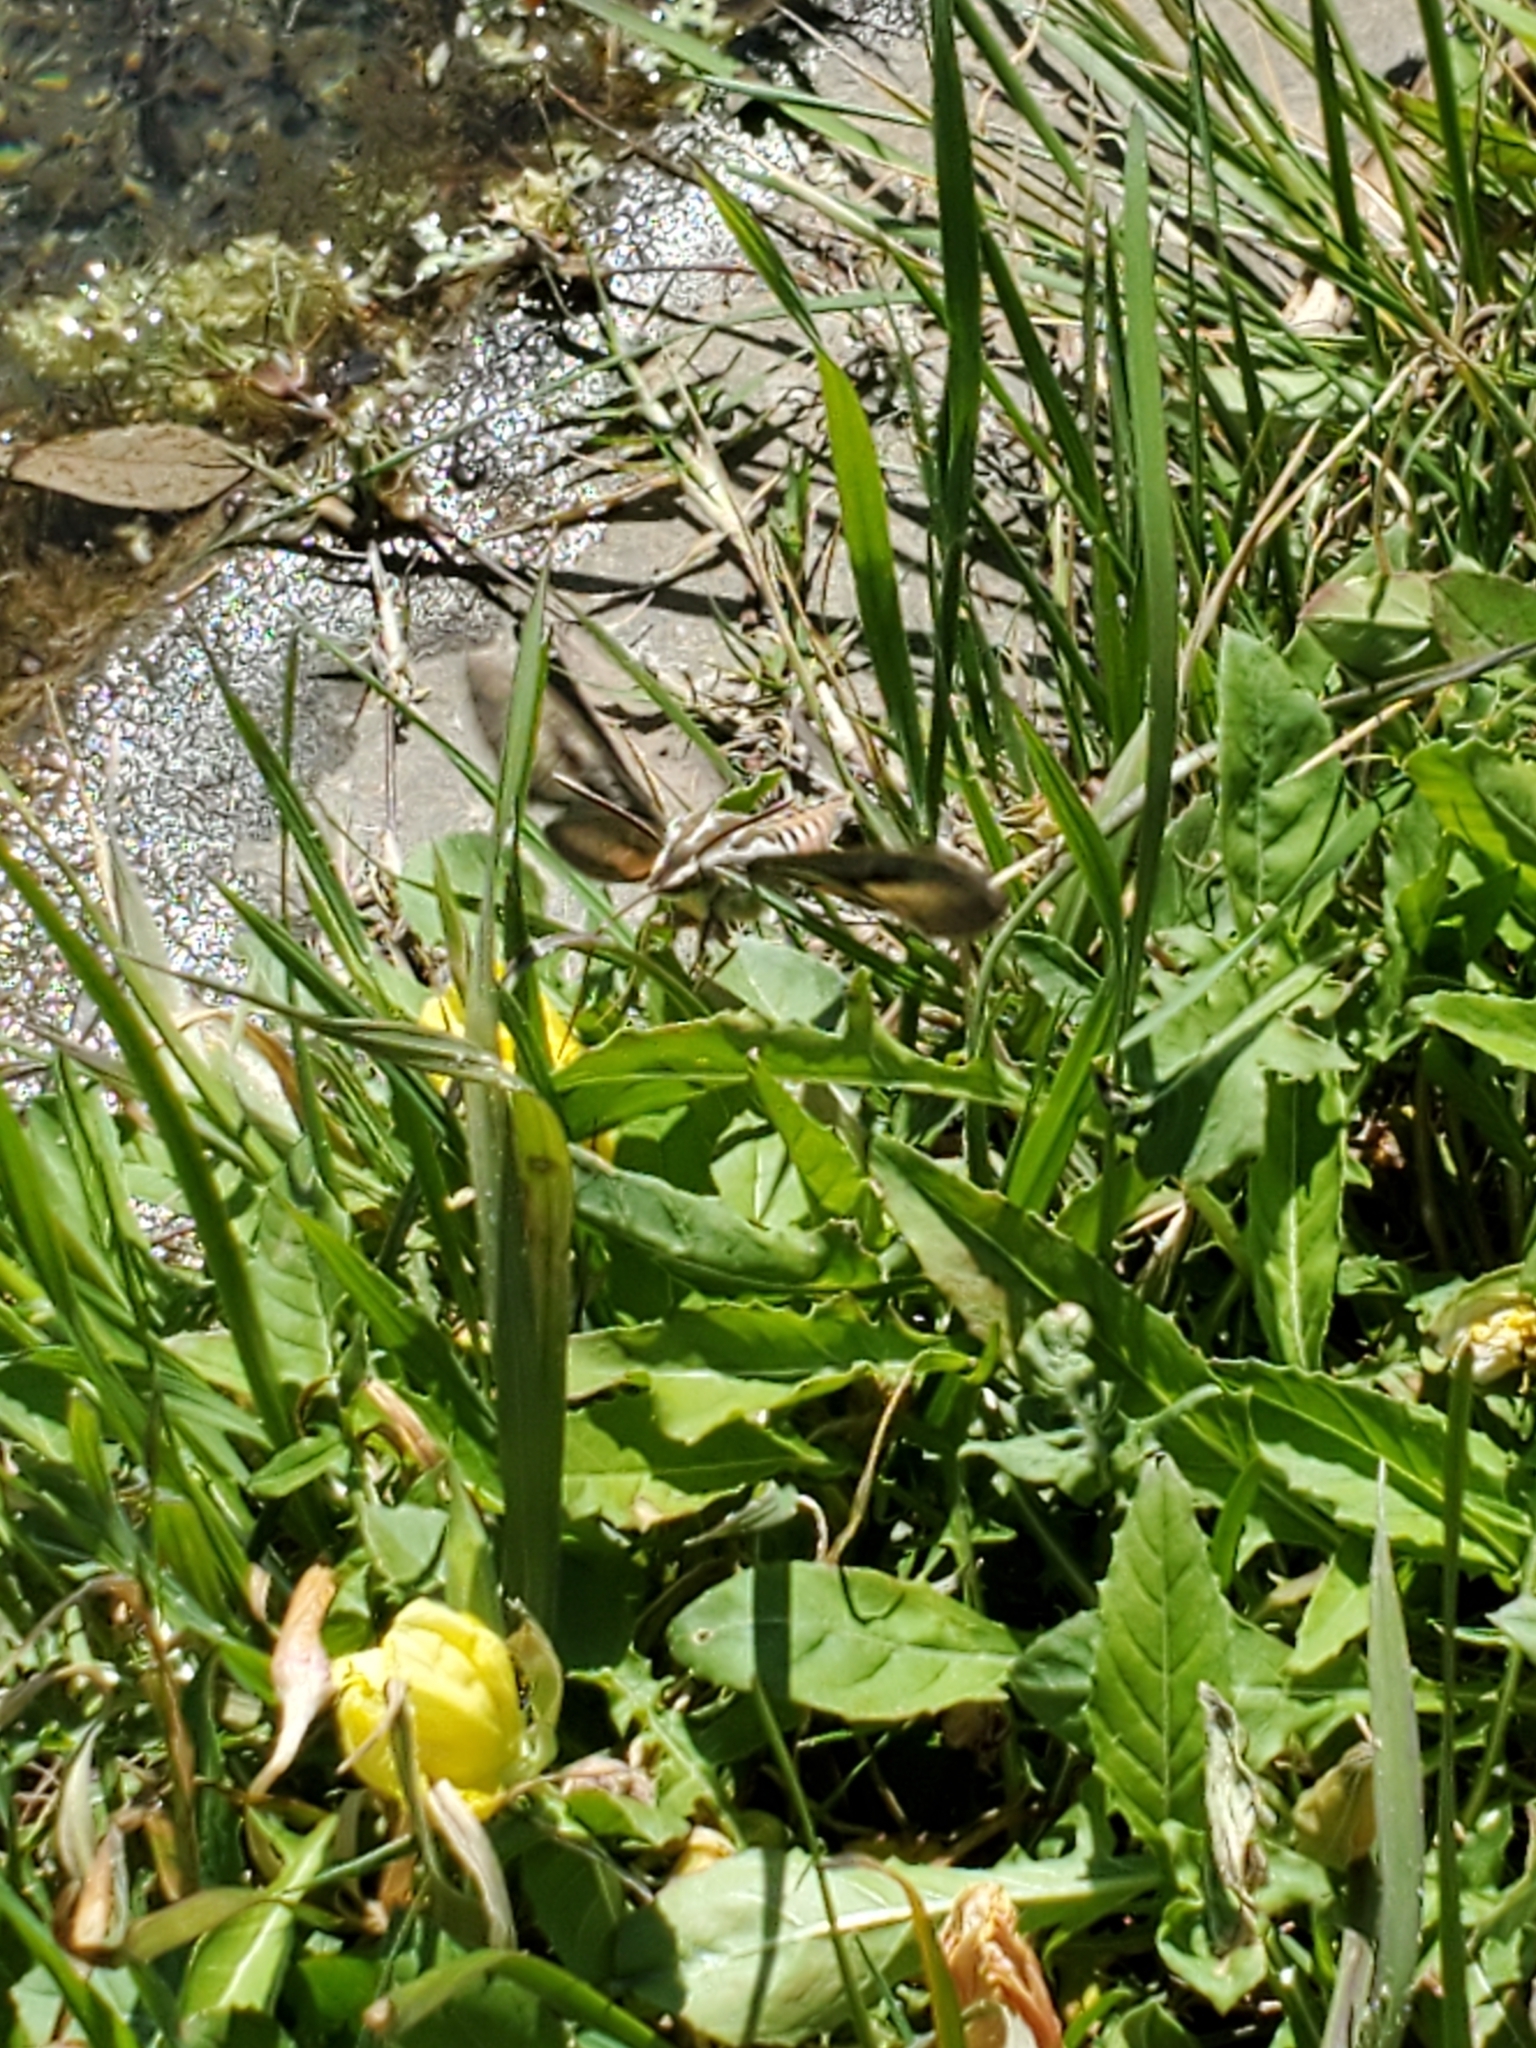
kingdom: Animalia
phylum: Arthropoda
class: Insecta
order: Lepidoptera
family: Sphingidae
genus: Hyles
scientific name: Hyles lineata
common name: White-lined sphinx
